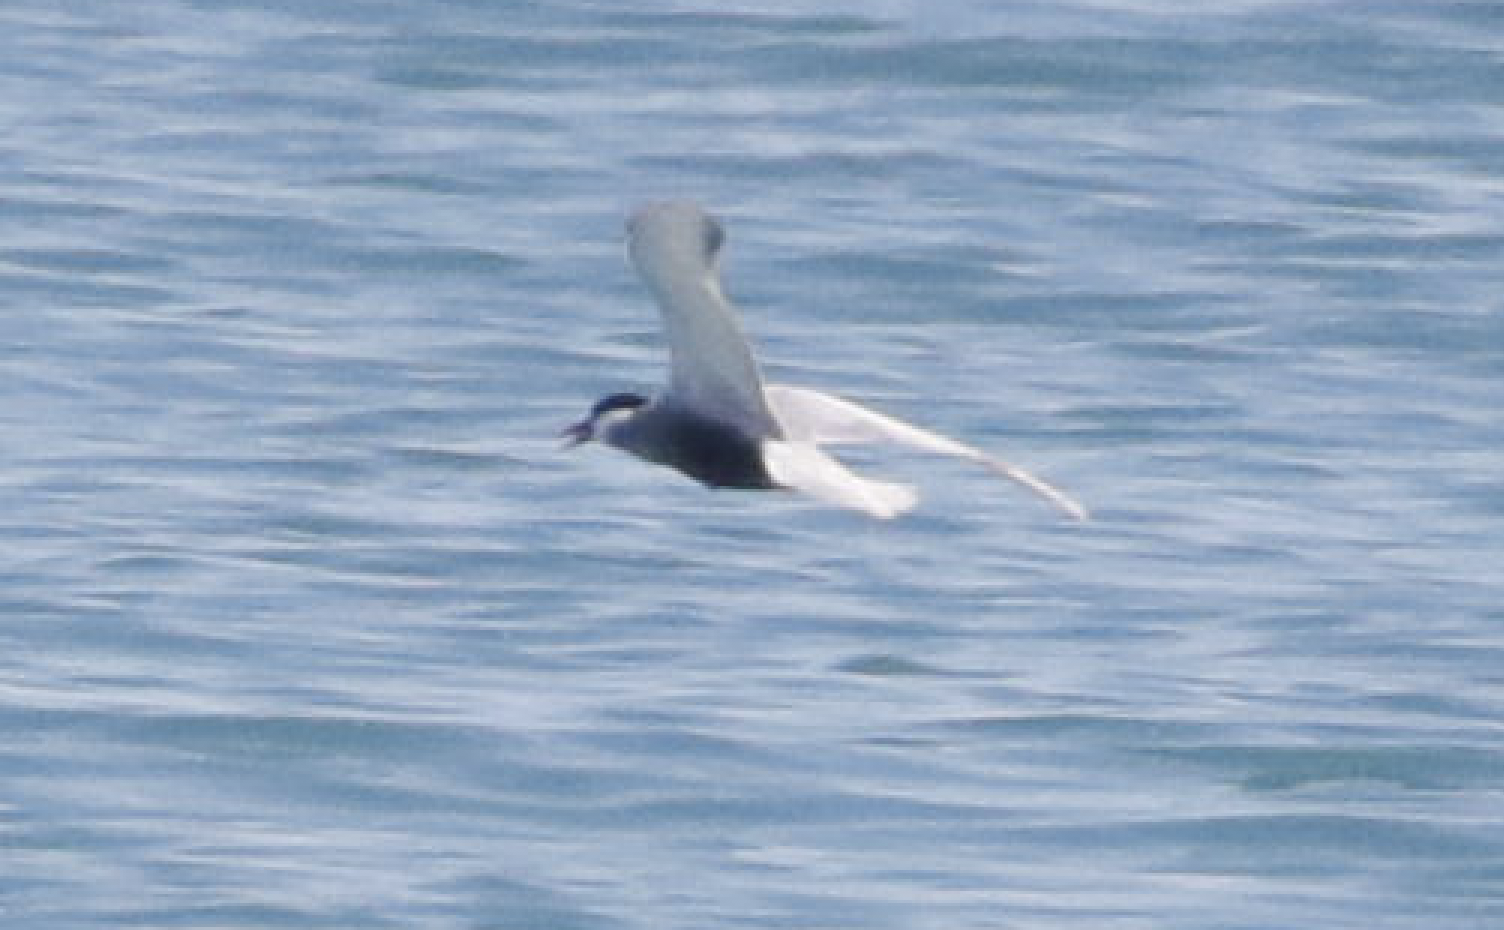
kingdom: Animalia
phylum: Chordata
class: Aves
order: Charadriiformes
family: Laridae
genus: Chlidonias
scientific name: Chlidonias hybrida
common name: Whiskered tern
